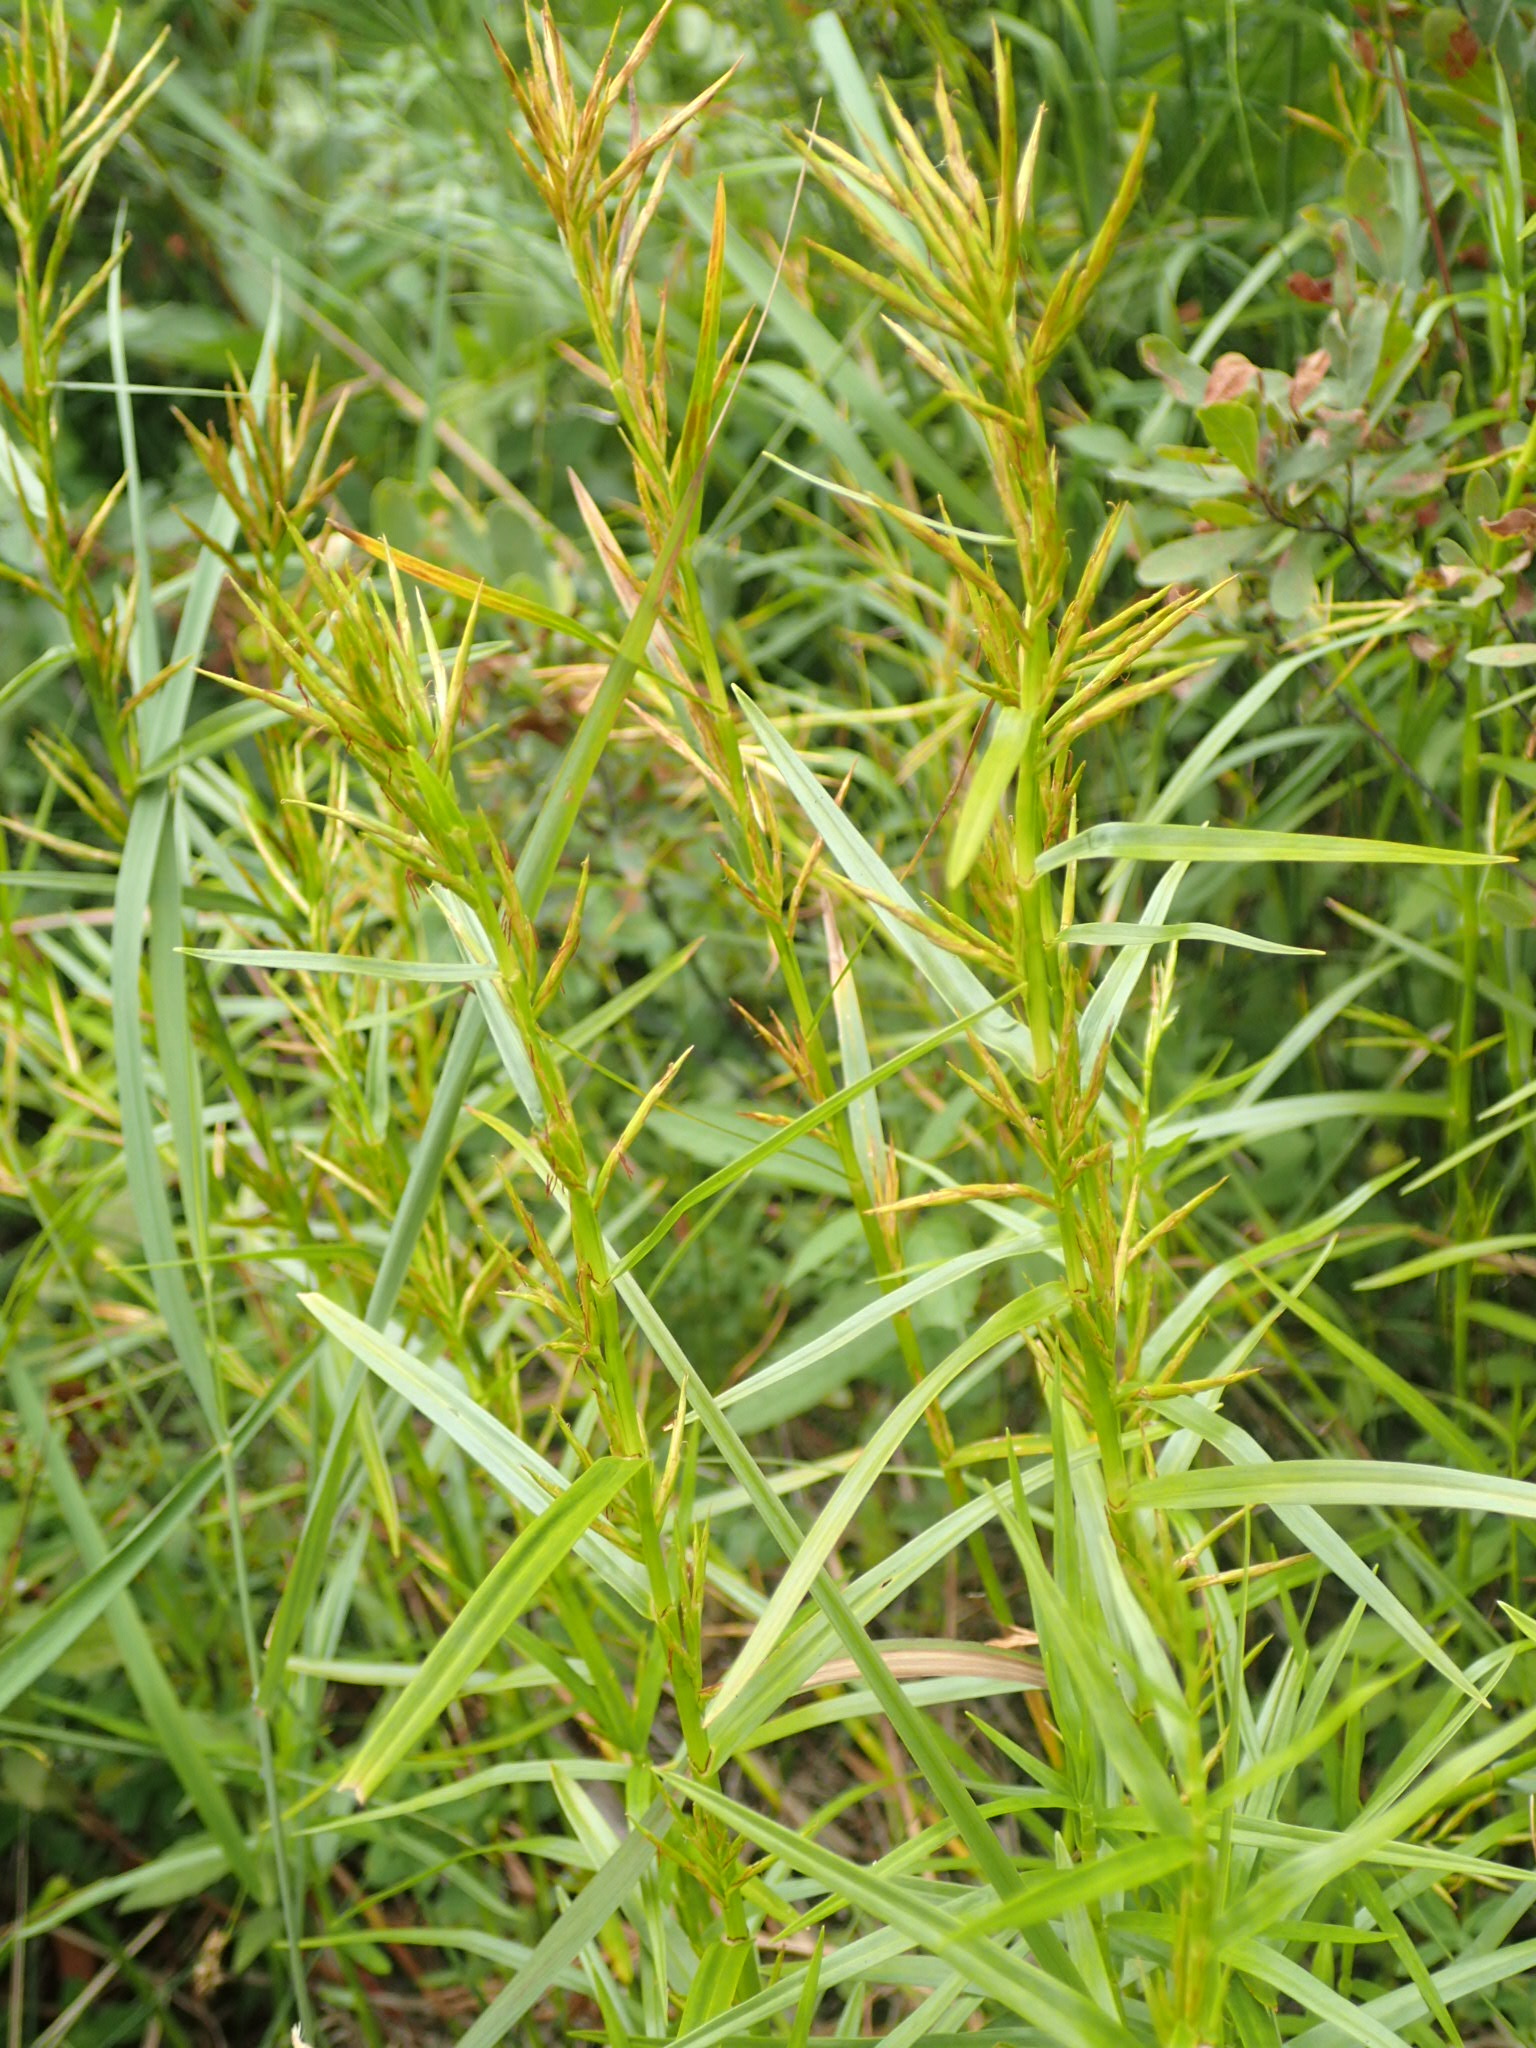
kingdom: Plantae
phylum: Tracheophyta
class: Liliopsida
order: Poales
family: Cyperaceae
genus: Dulichium
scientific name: Dulichium arundinaceum
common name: Three-way sedge
